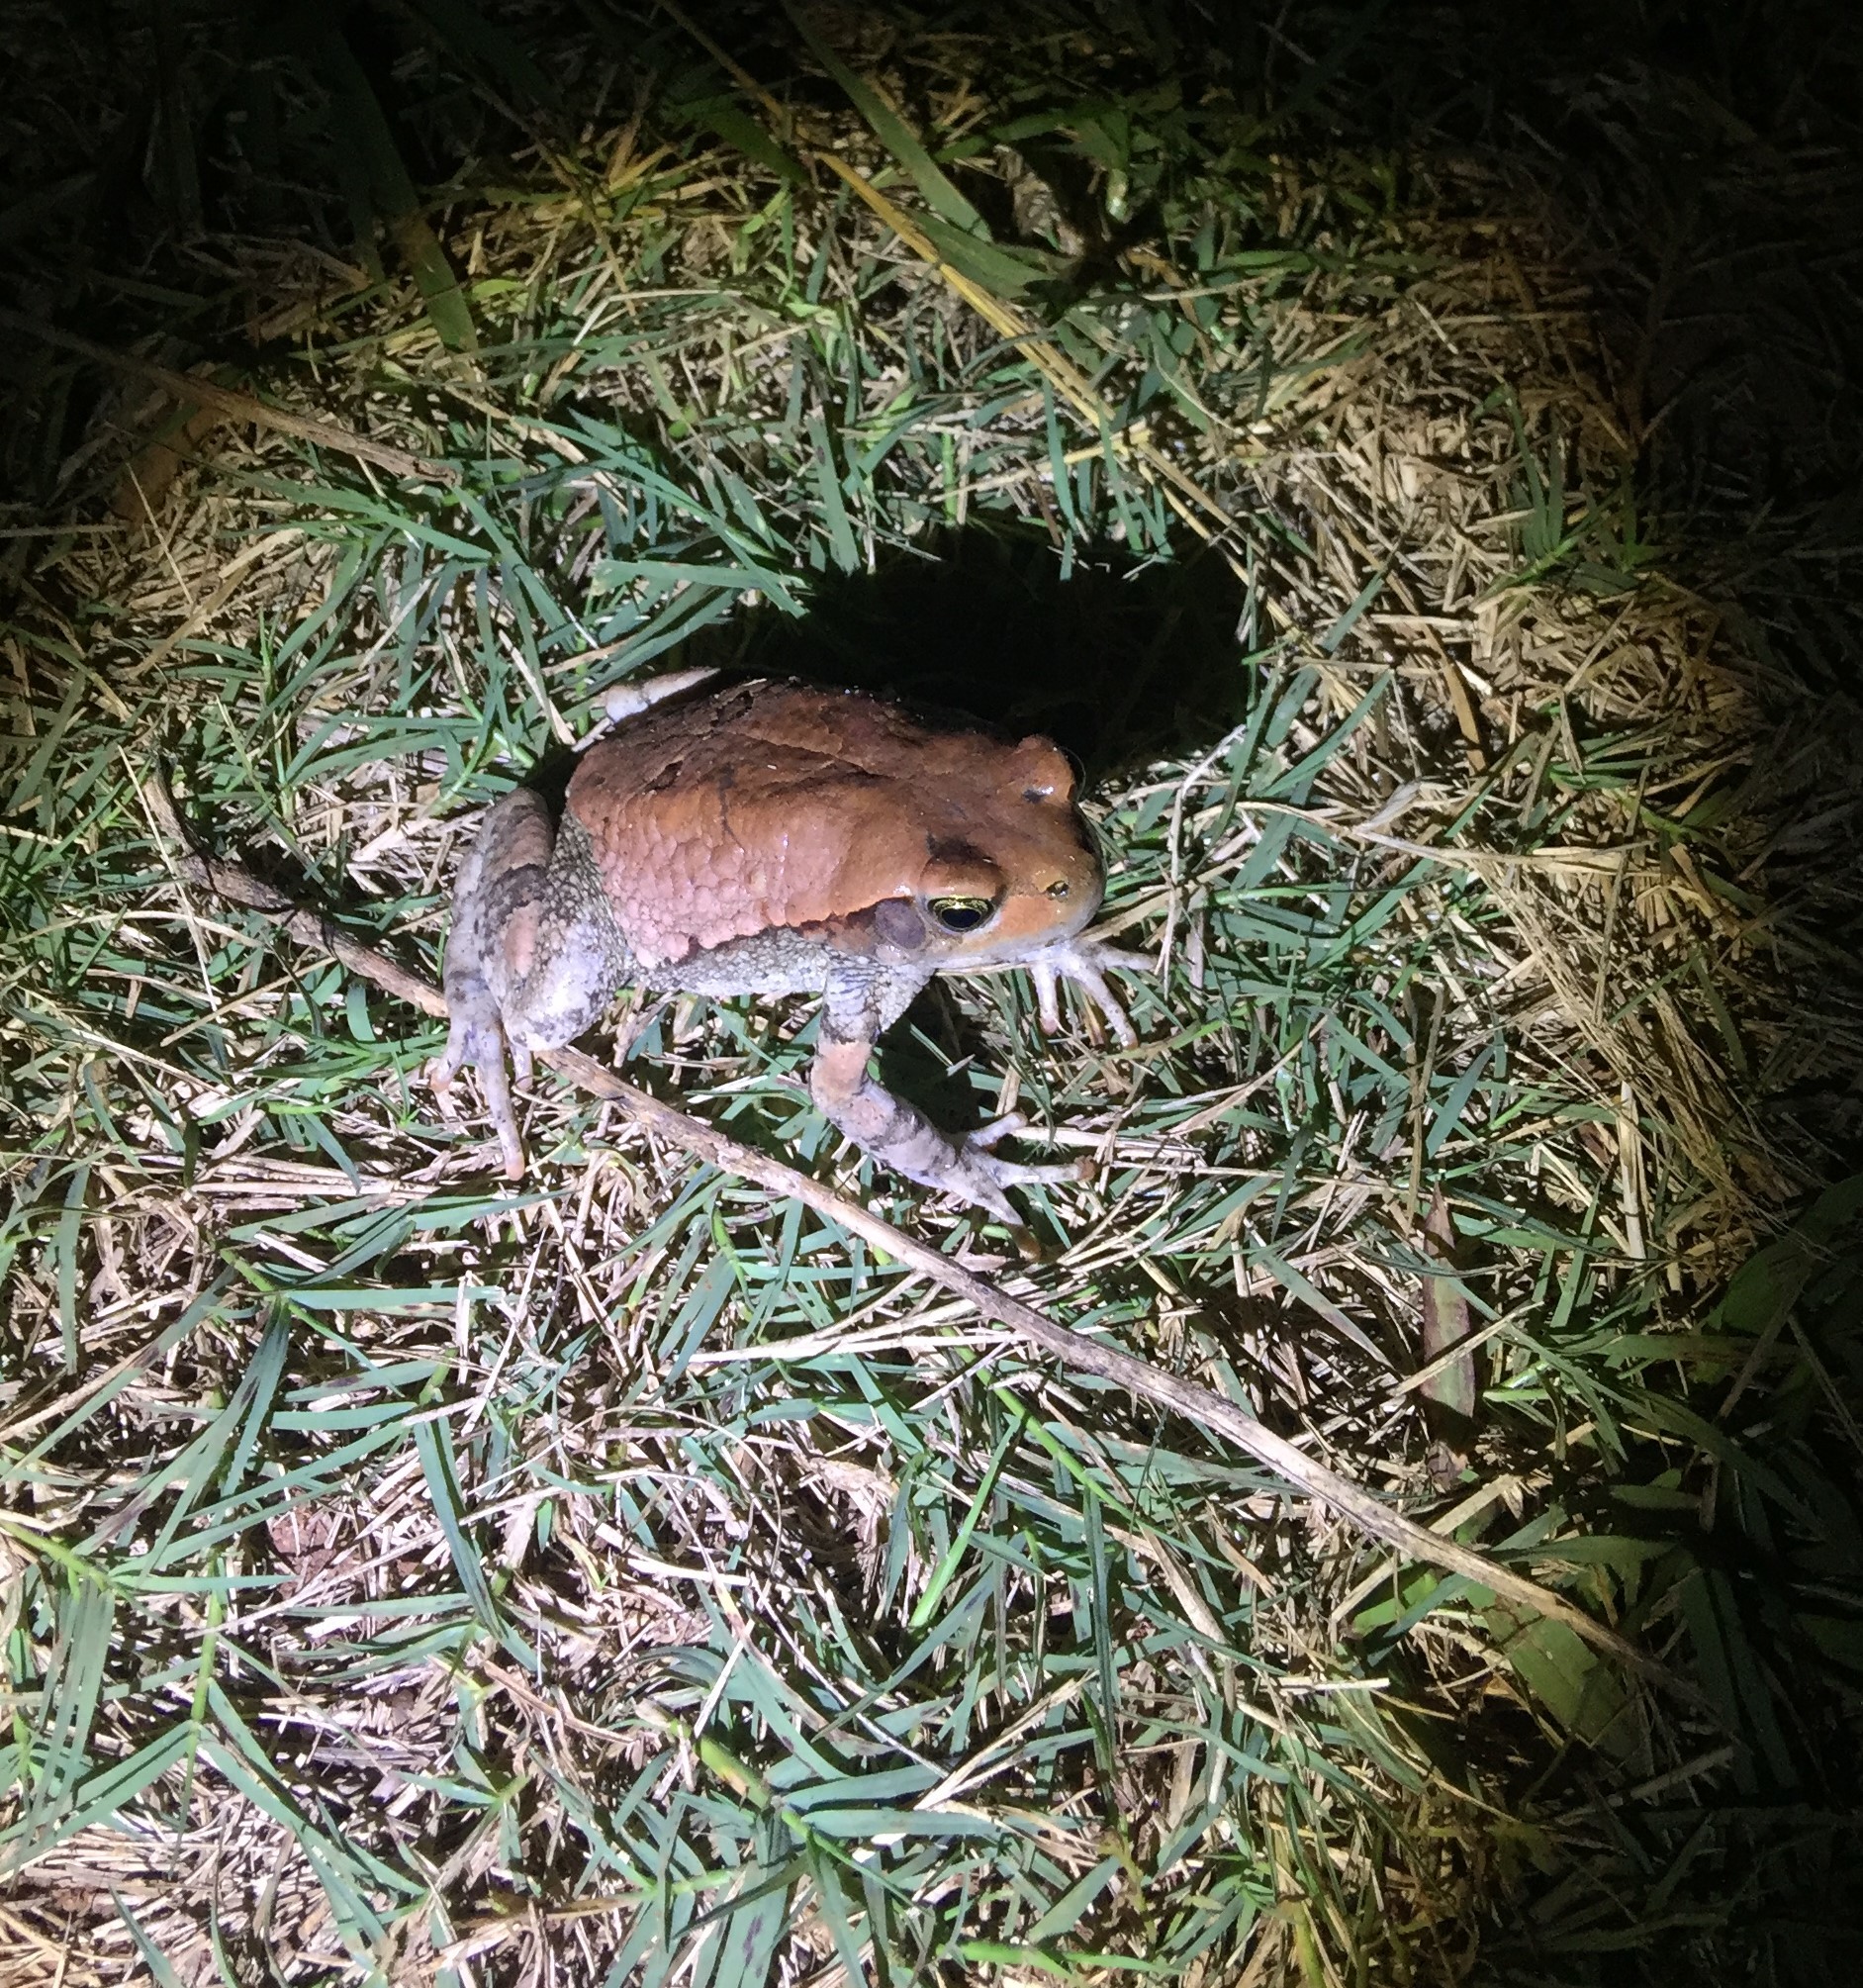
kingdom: Animalia
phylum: Chordata
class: Amphibia
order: Anura
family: Bufonidae
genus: Schismaderma
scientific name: Schismaderma carens
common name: African split-skin toad
